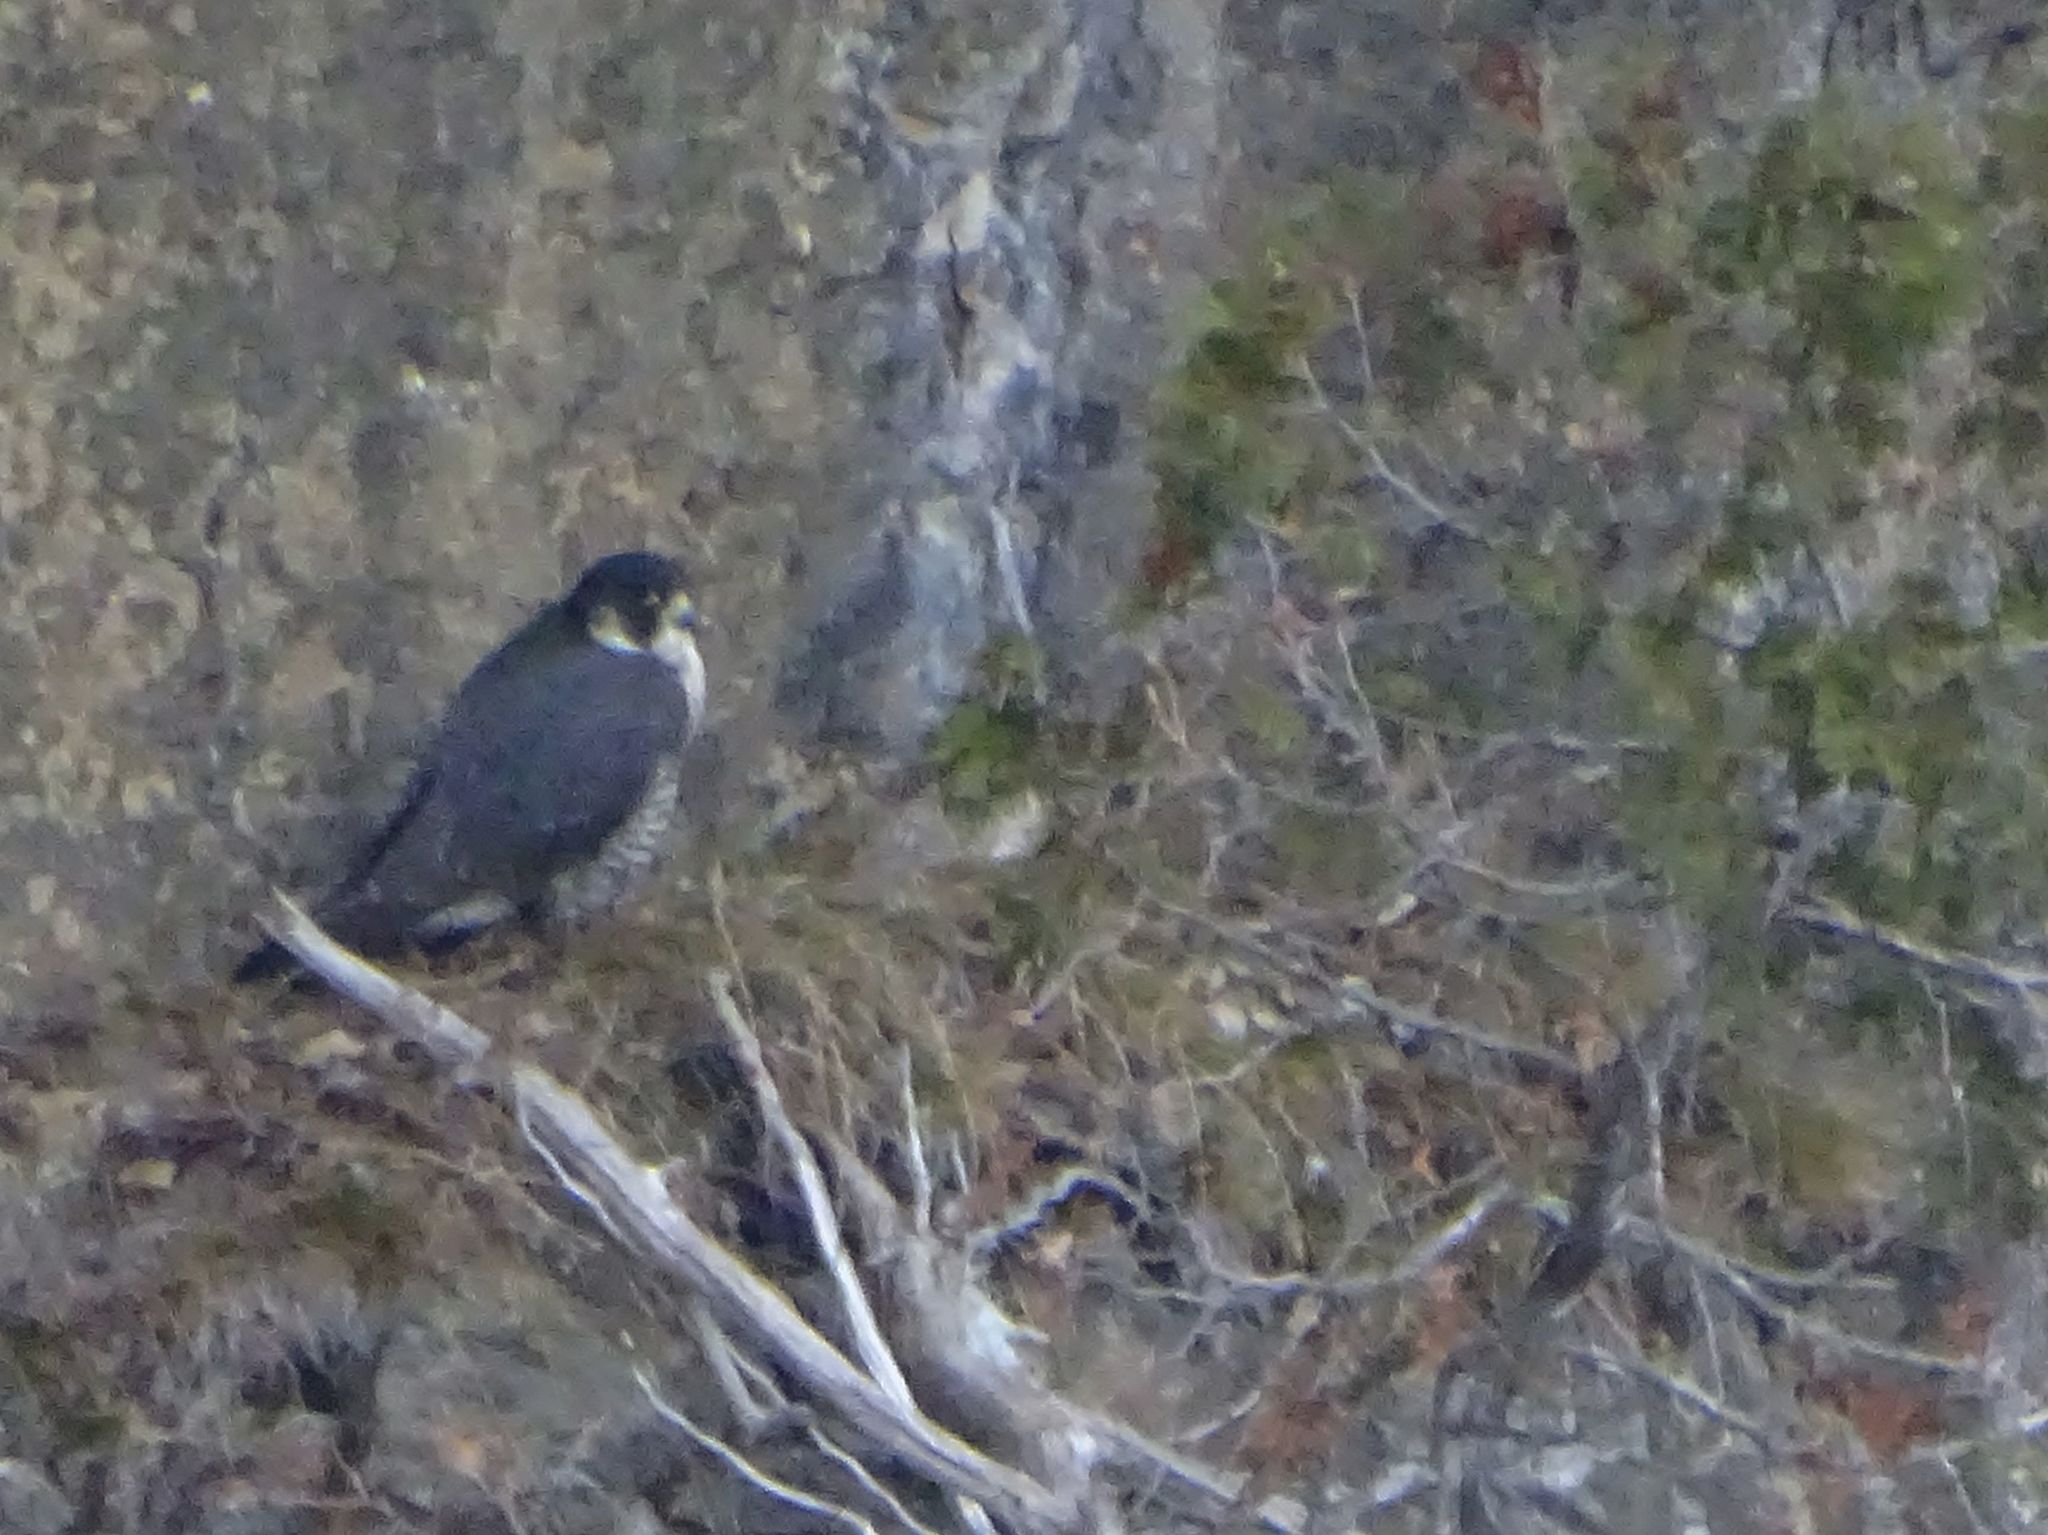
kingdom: Animalia
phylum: Chordata
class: Aves
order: Falconiformes
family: Falconidae
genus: Falco
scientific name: Falco peregrinus
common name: Peregrine falcon
